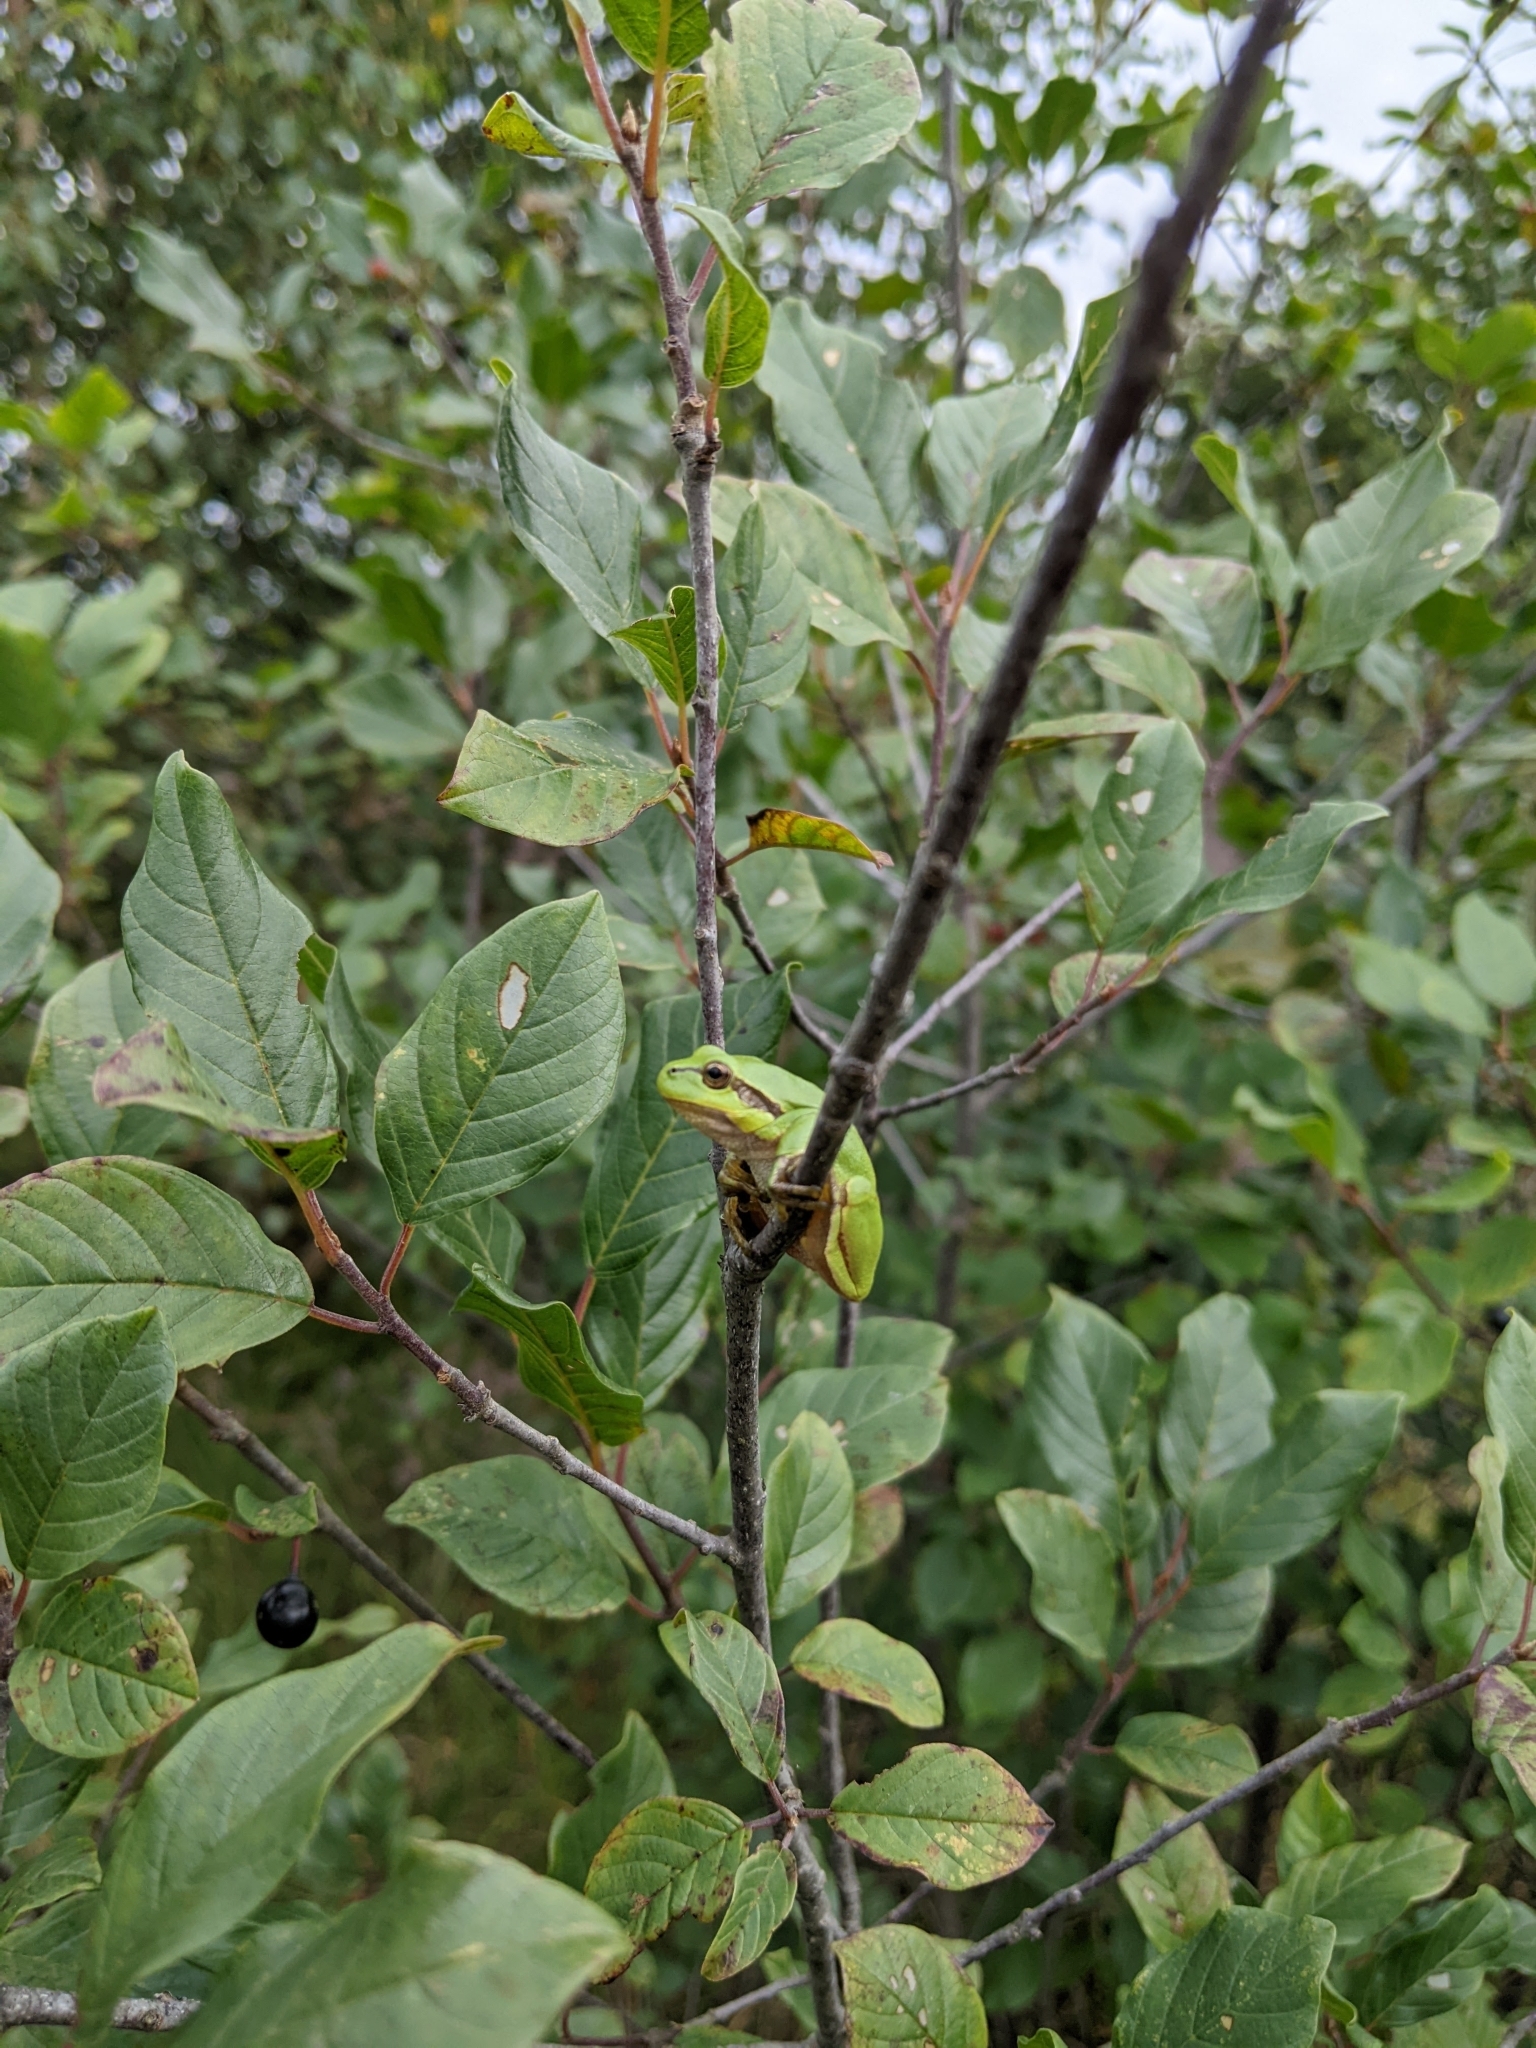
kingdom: Animalia
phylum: Chordata
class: Amphibia
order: Anura
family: Hylidae
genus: Hyla
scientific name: Hyla arborea
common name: Common tree frog
